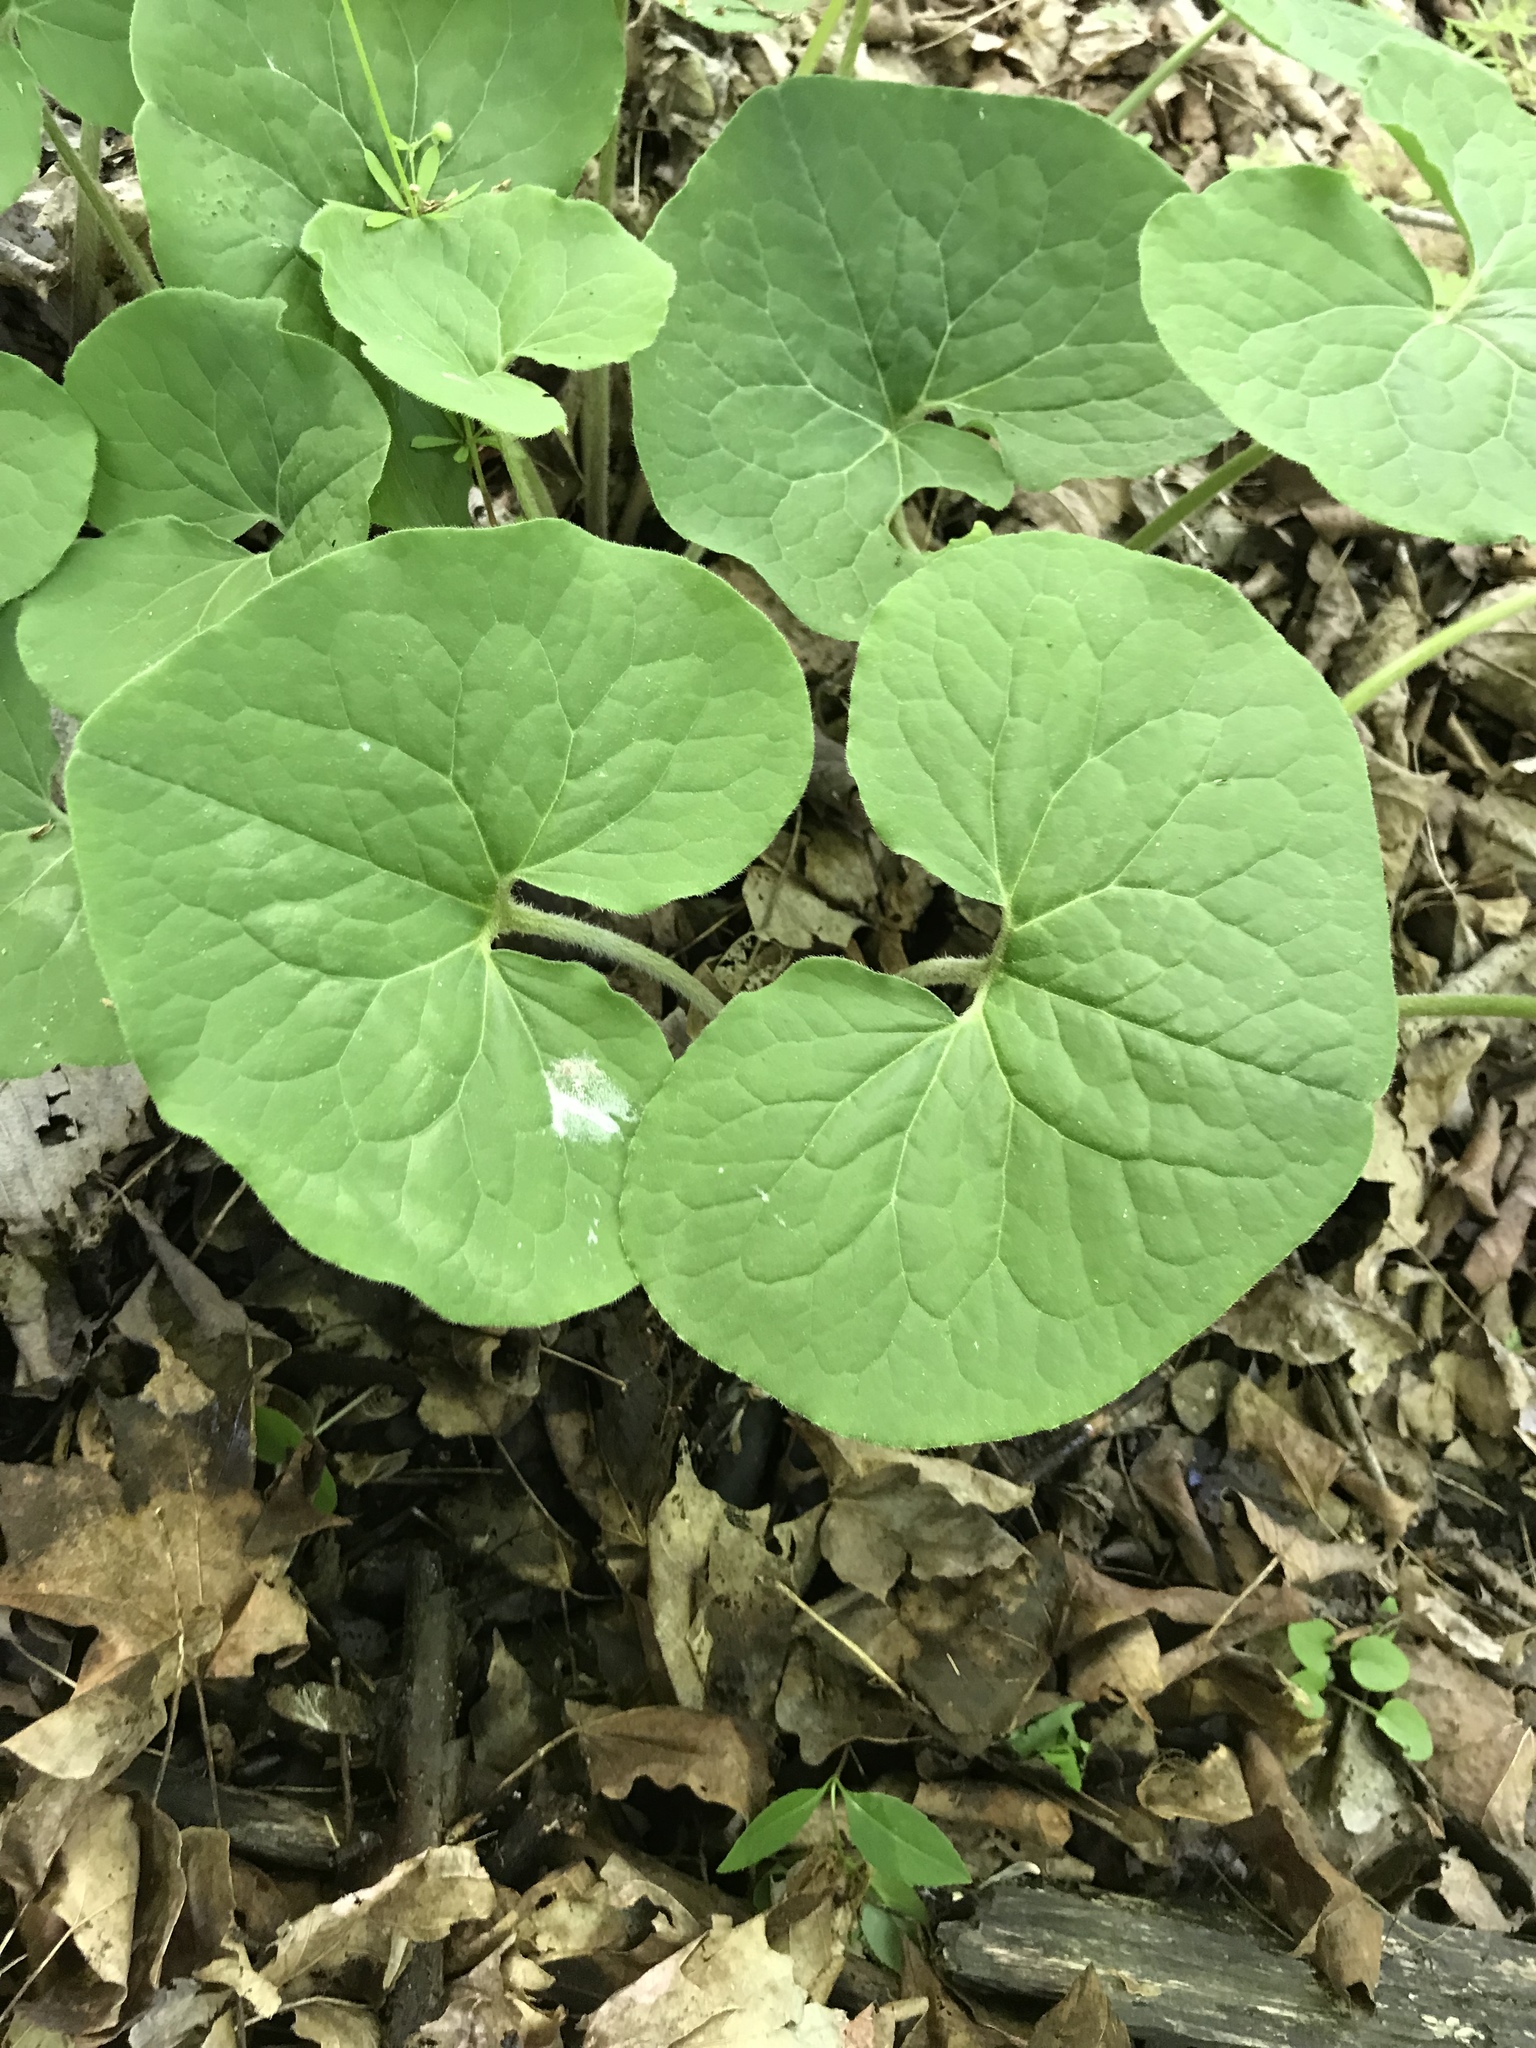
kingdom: Plantae
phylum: Tracheophyta
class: Magnoliopsida
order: Piperales
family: Aristolochiaceae
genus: Asarum
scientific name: Asarum canadense
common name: Wild ginger
